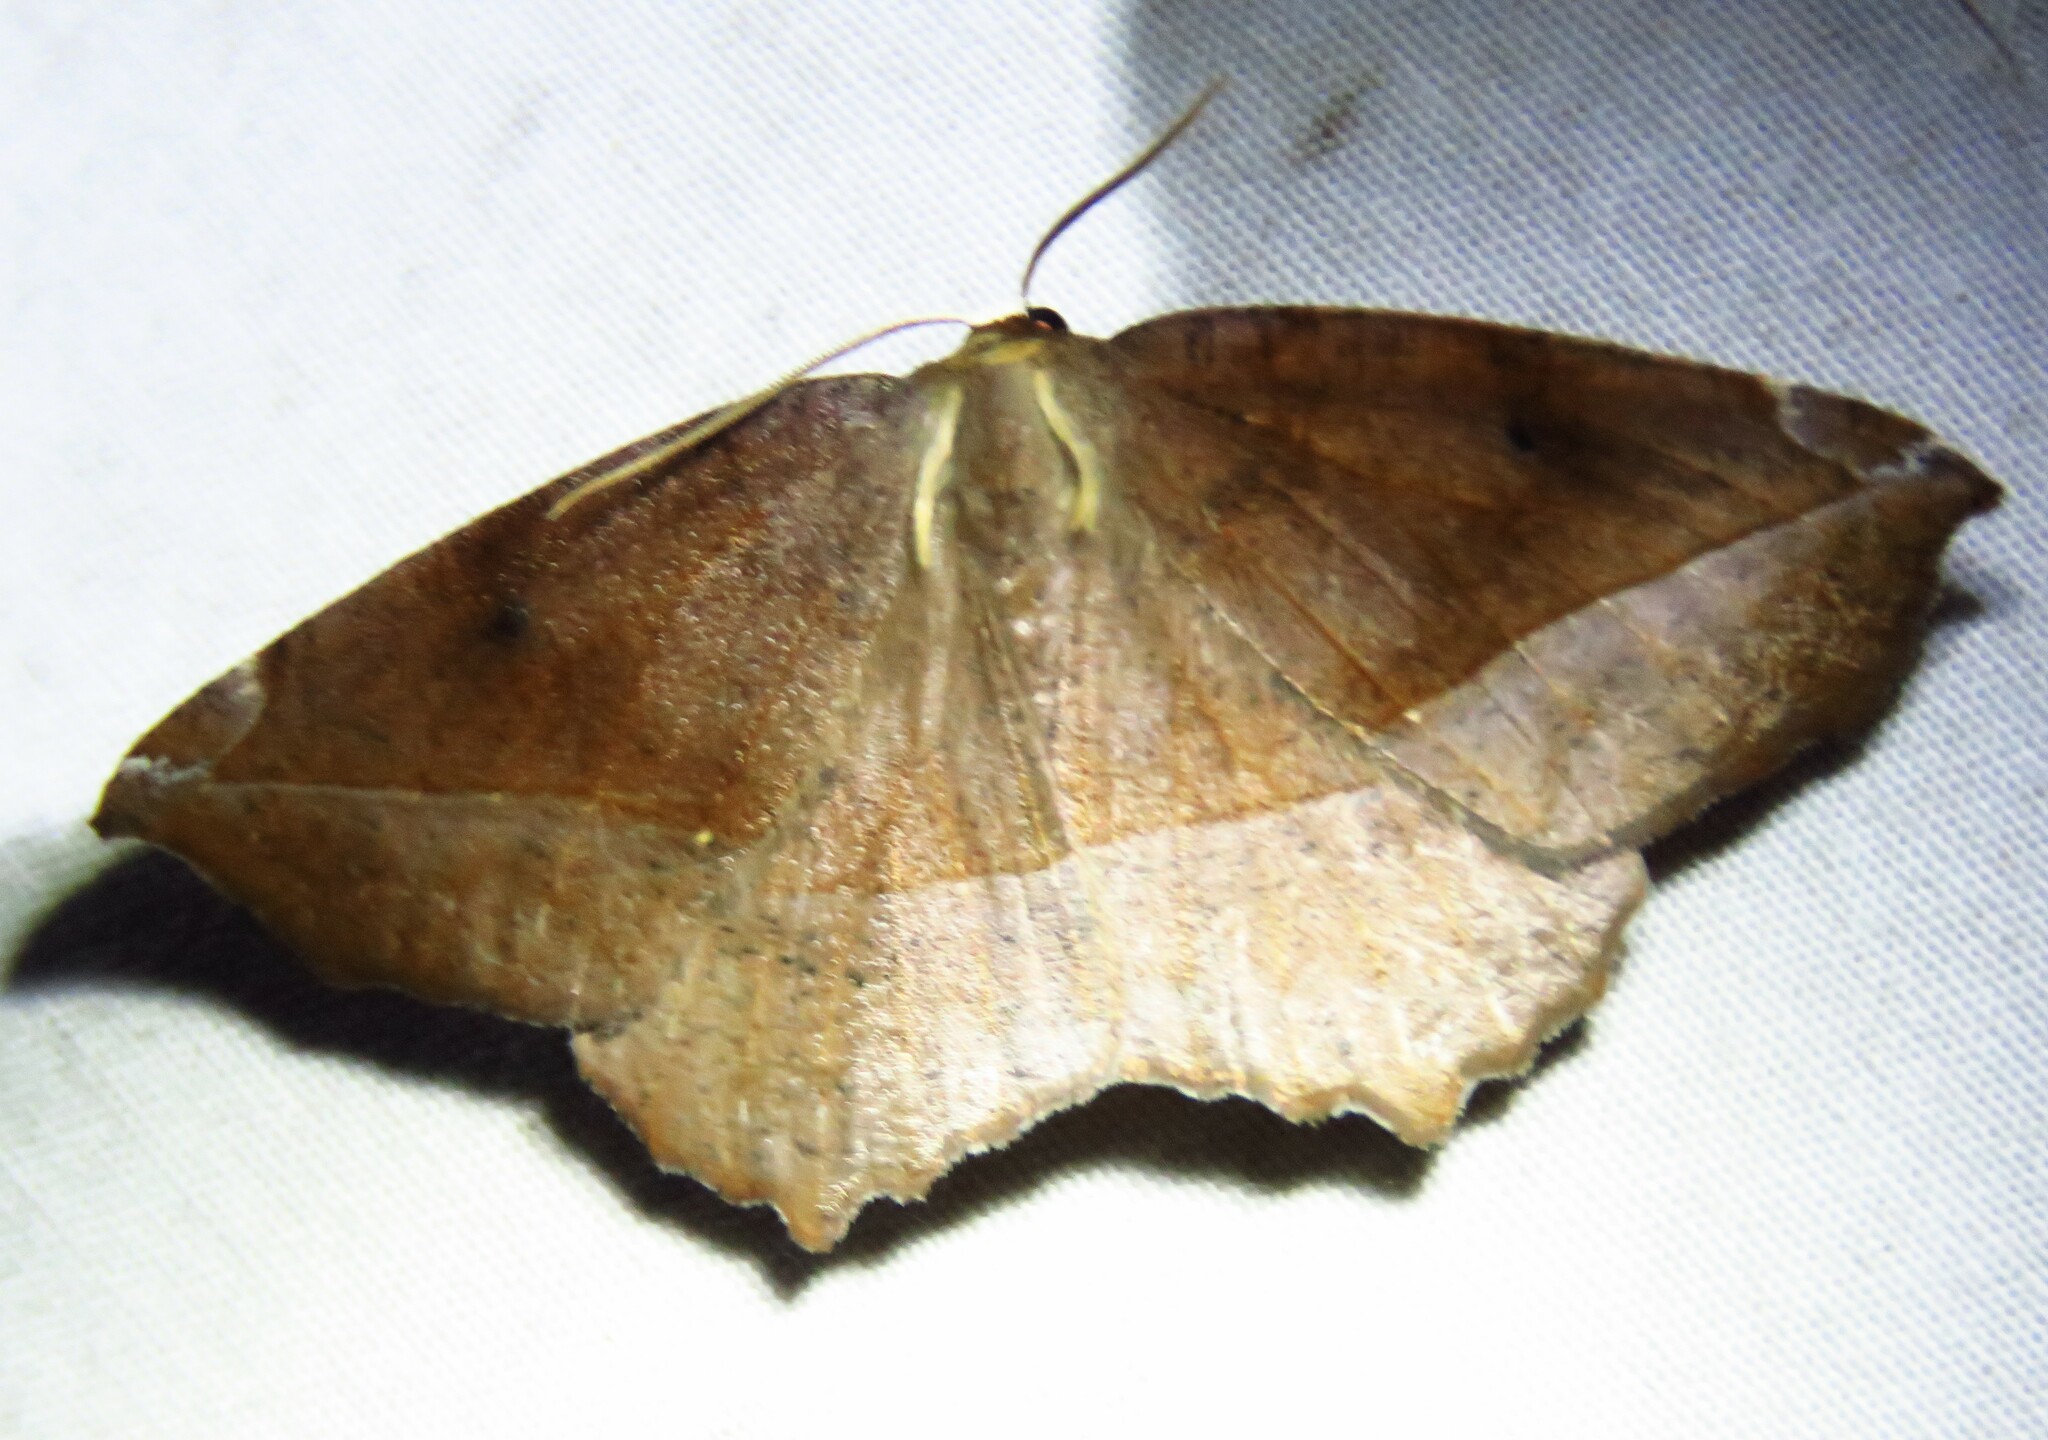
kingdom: Animalia
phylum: Arthropoda
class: Insecta
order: Lepidoptera
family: Geometridae
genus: Eutrapela
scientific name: Eutrapela clemataria
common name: Curved-toothed geometer
